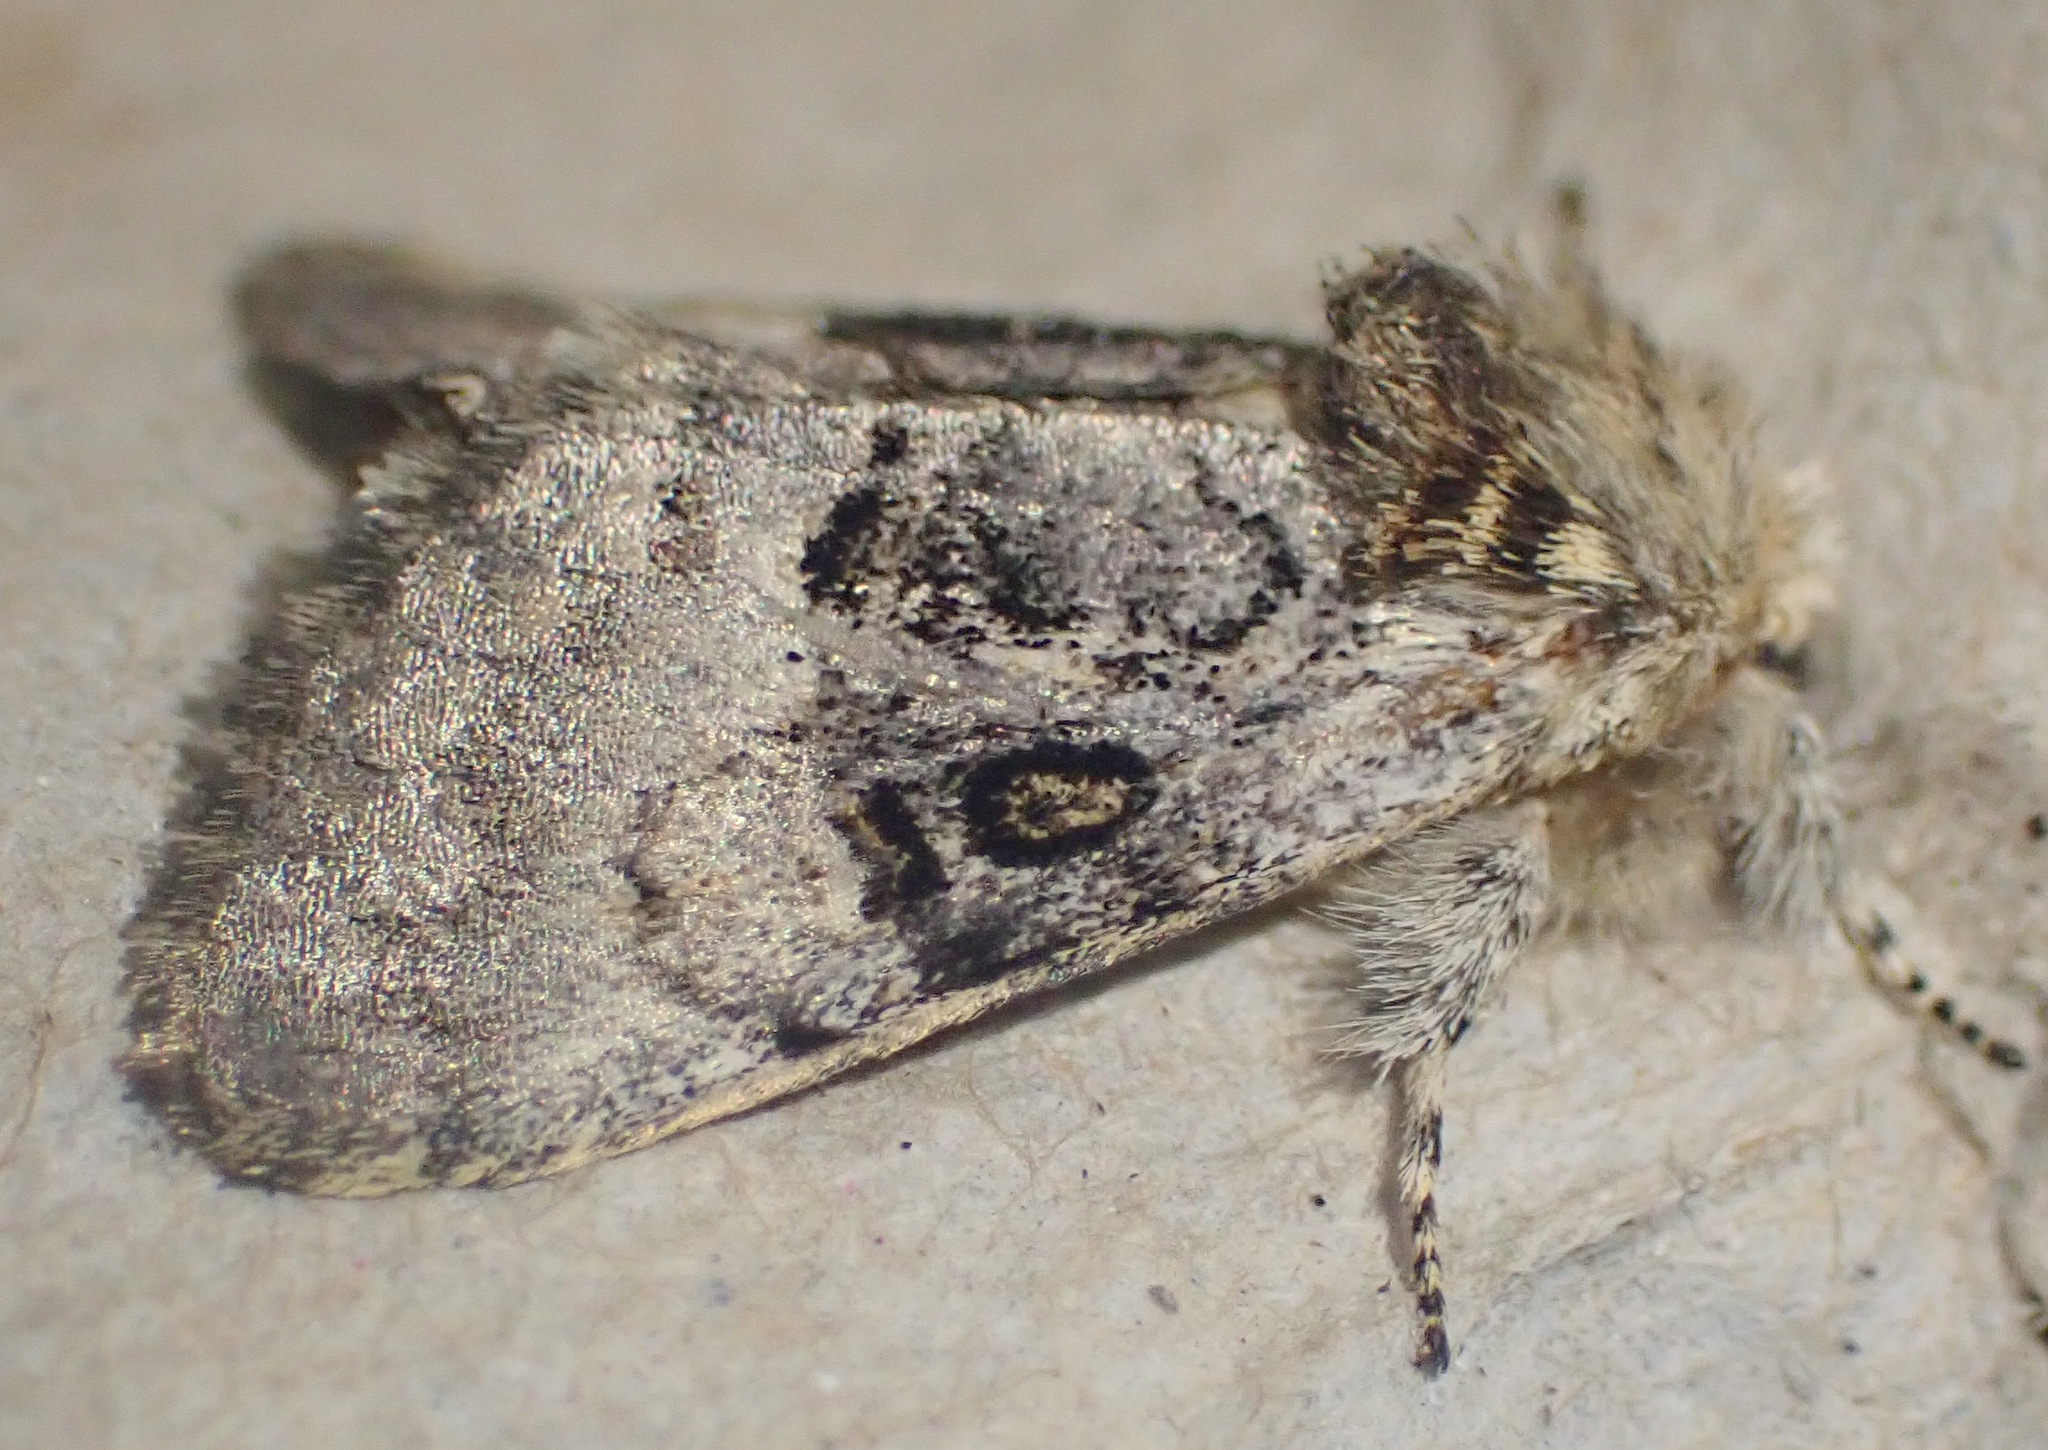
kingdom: Animalia
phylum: Arthropoda
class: Insecta
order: Lepidoptera
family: Noctuidae
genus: Colocasia
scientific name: Colocasia coryli
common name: Nut-tree tussock
